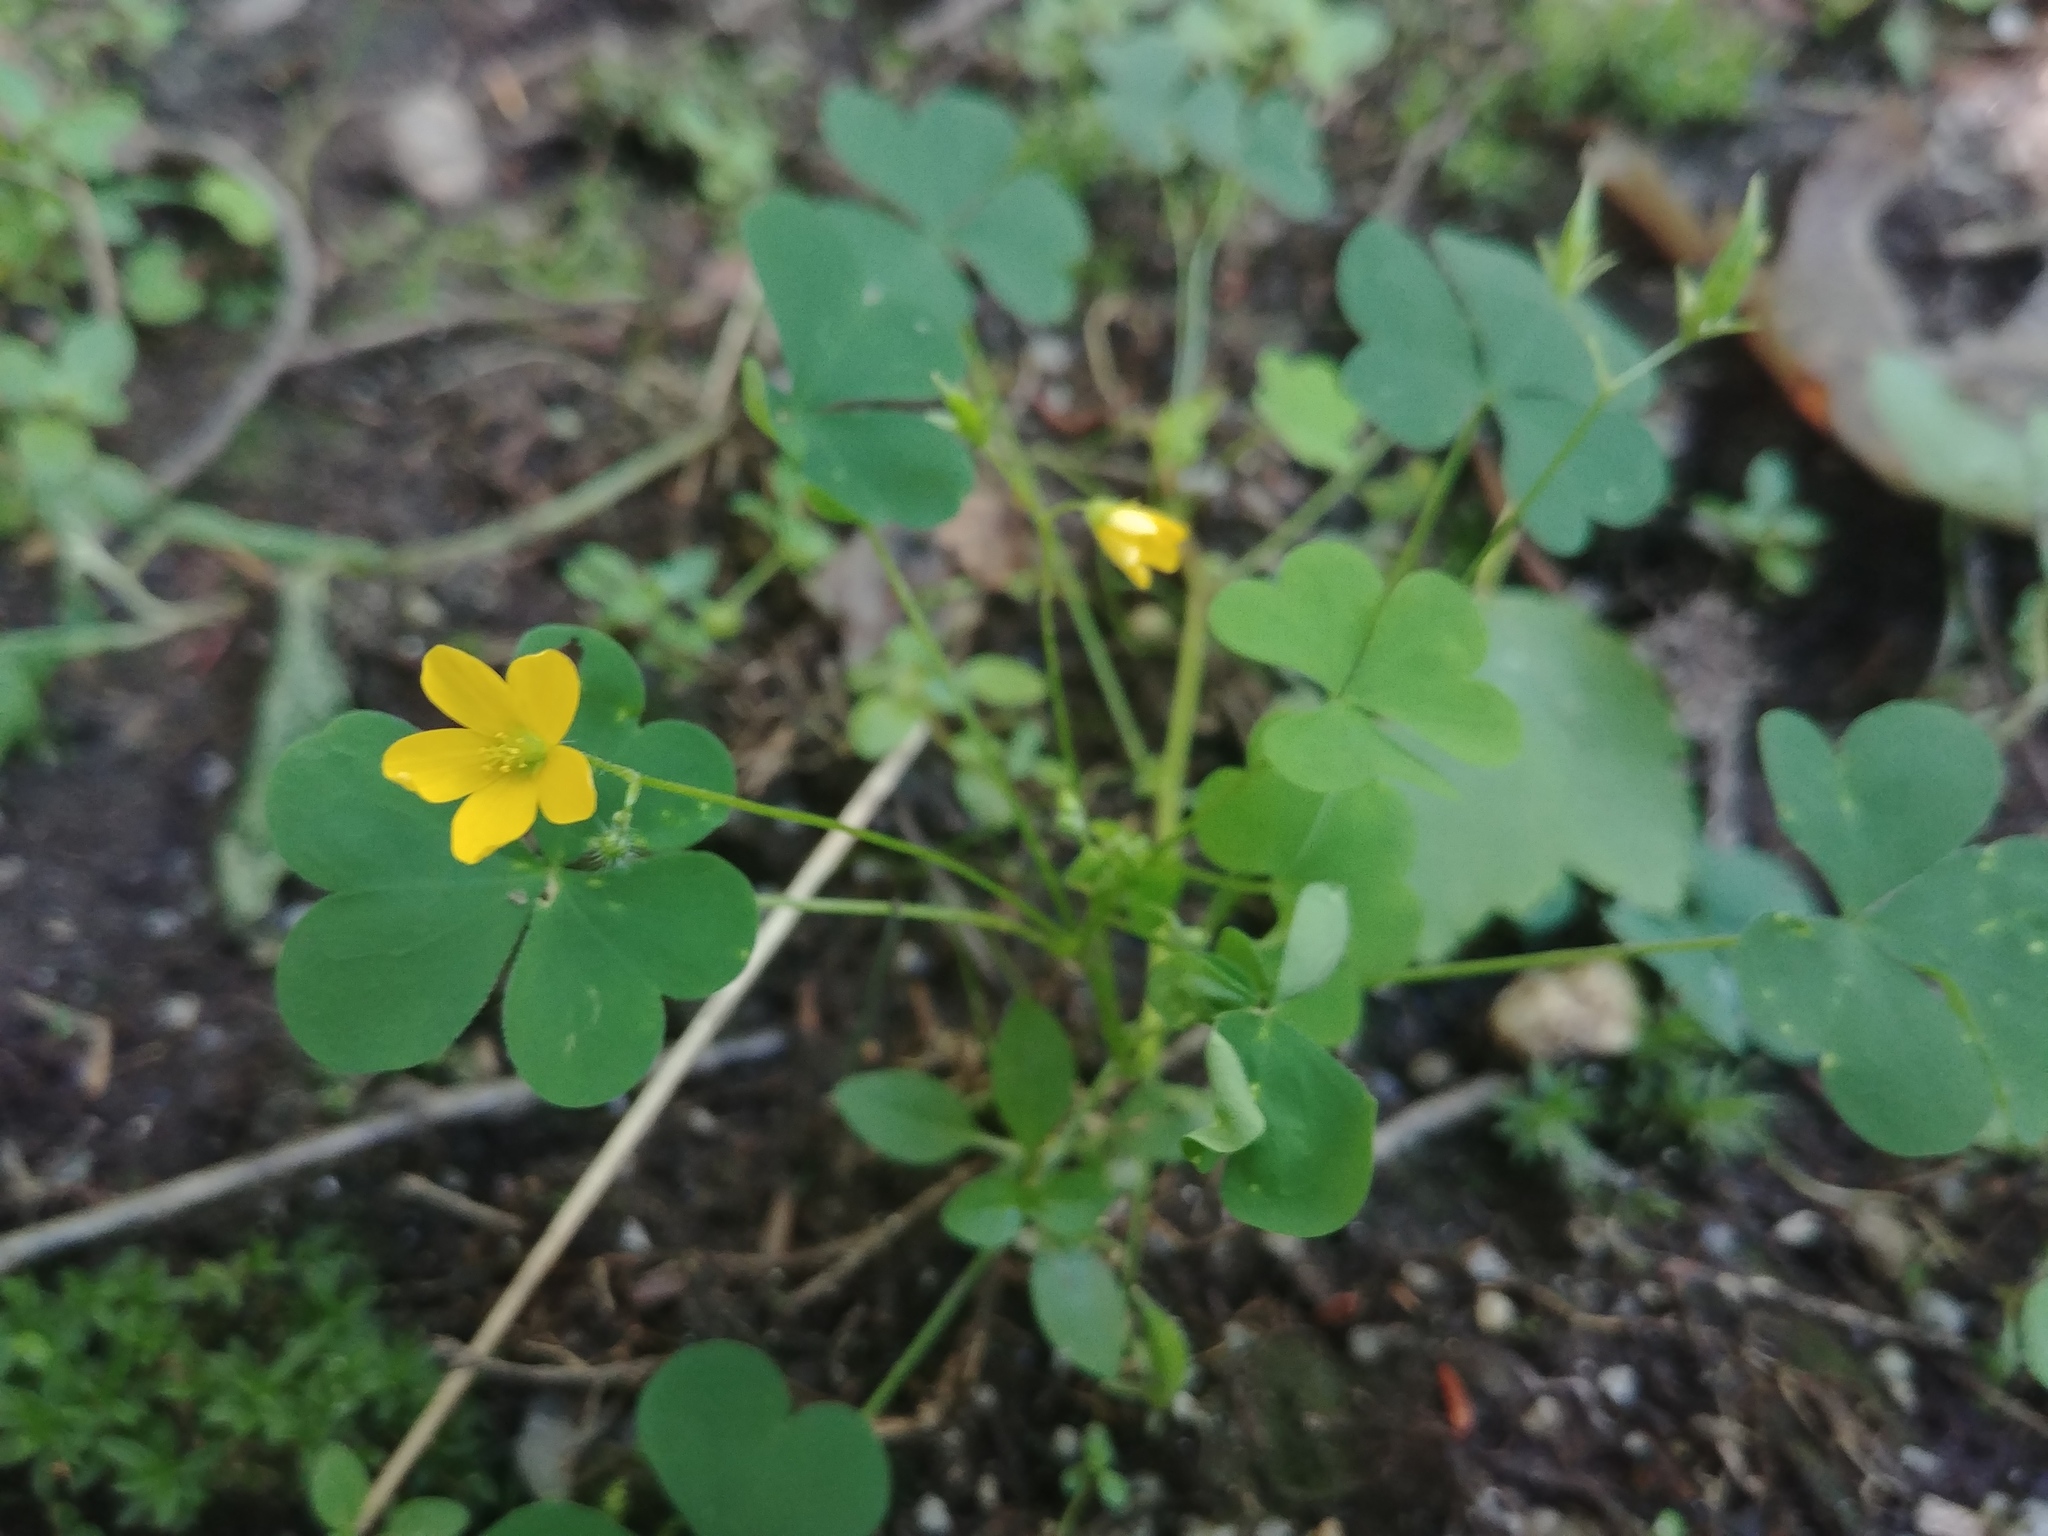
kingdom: Plantae
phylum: Tracheophyta
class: Magnoliopsida
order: Oxalidales
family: Oxalidaceae
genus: Oxalis
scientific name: Oxalis stricta
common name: Upright yellow-sorrel
